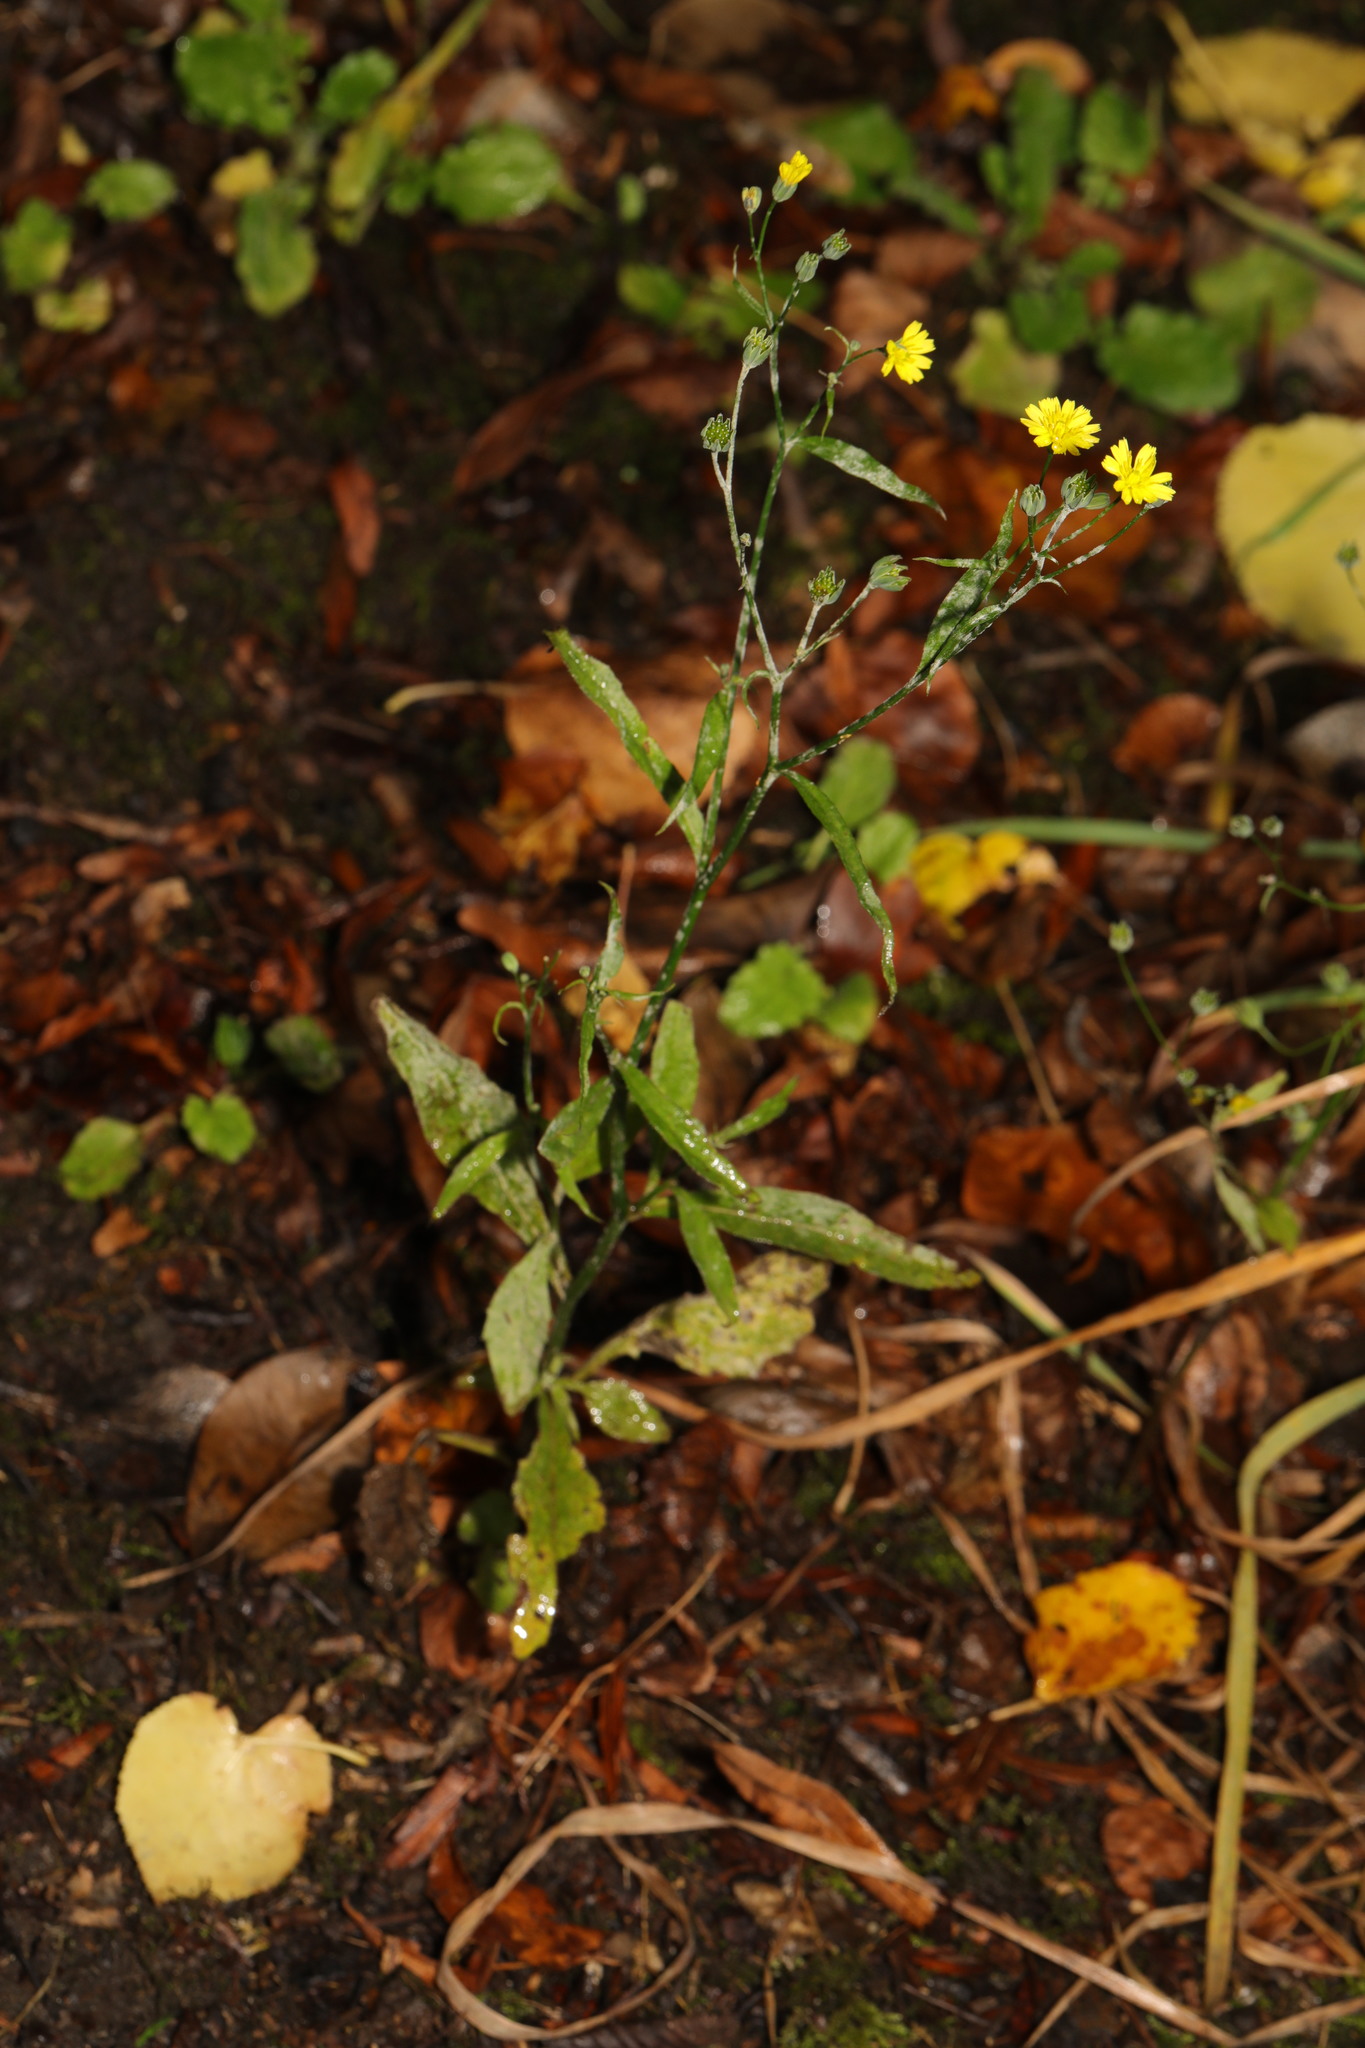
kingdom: Plantae
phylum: Tracheophyta
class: Magnoliopsida
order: Asterales
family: Asteraceae
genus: Lapsana
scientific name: Lapsana communis
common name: Nipplewort
